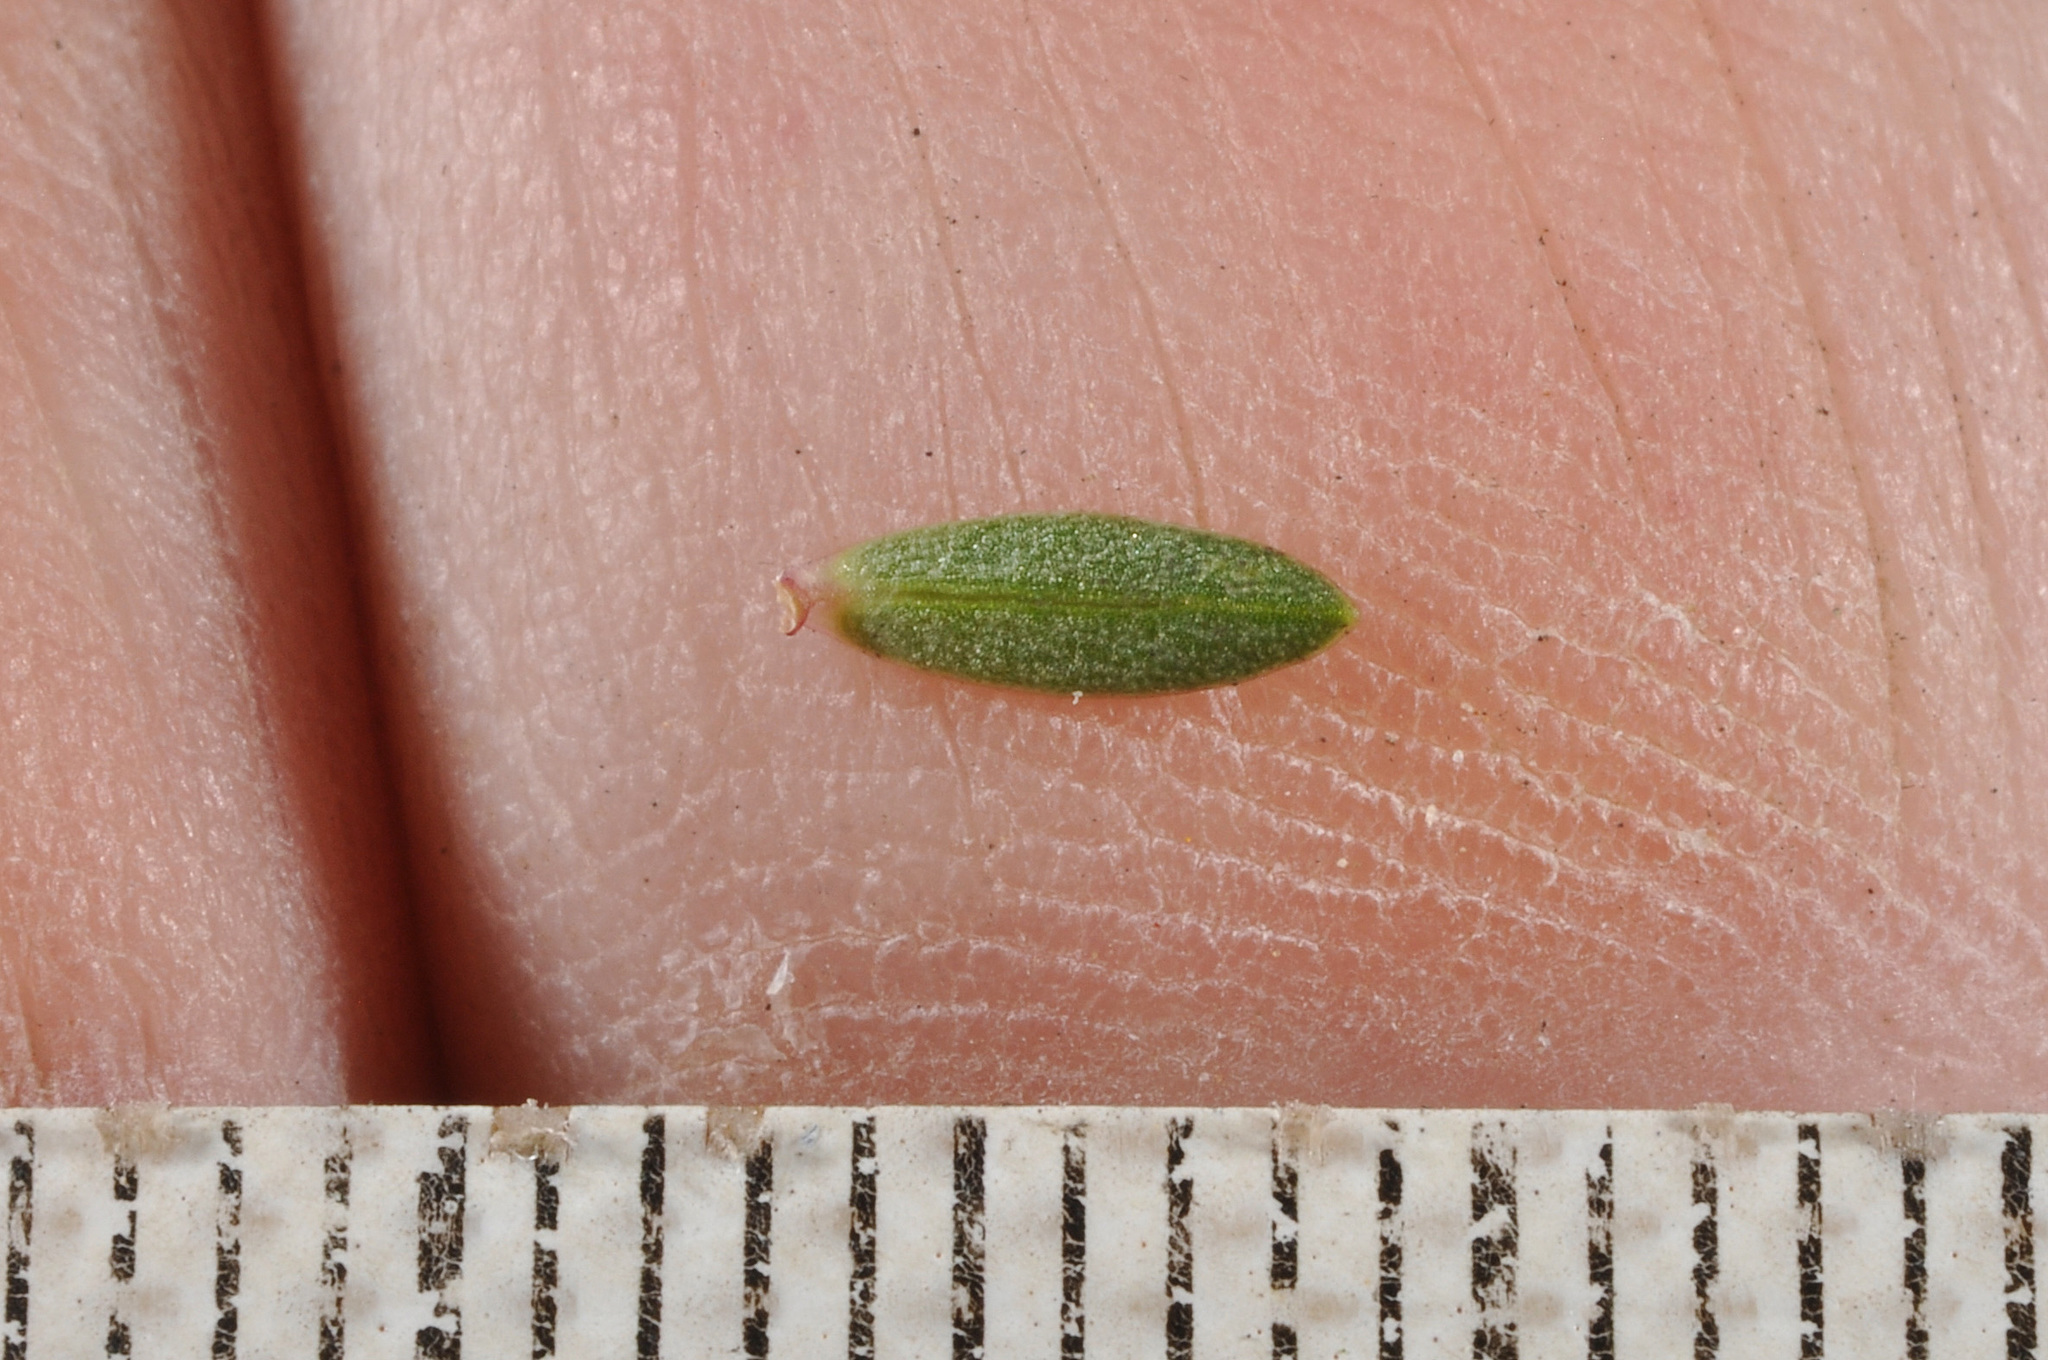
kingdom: Plantae
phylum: Tracheophyta
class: Magnoliopsida
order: Malvales
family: Thymelaeaceae
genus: Pimelea
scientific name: Pimelea prostrata
